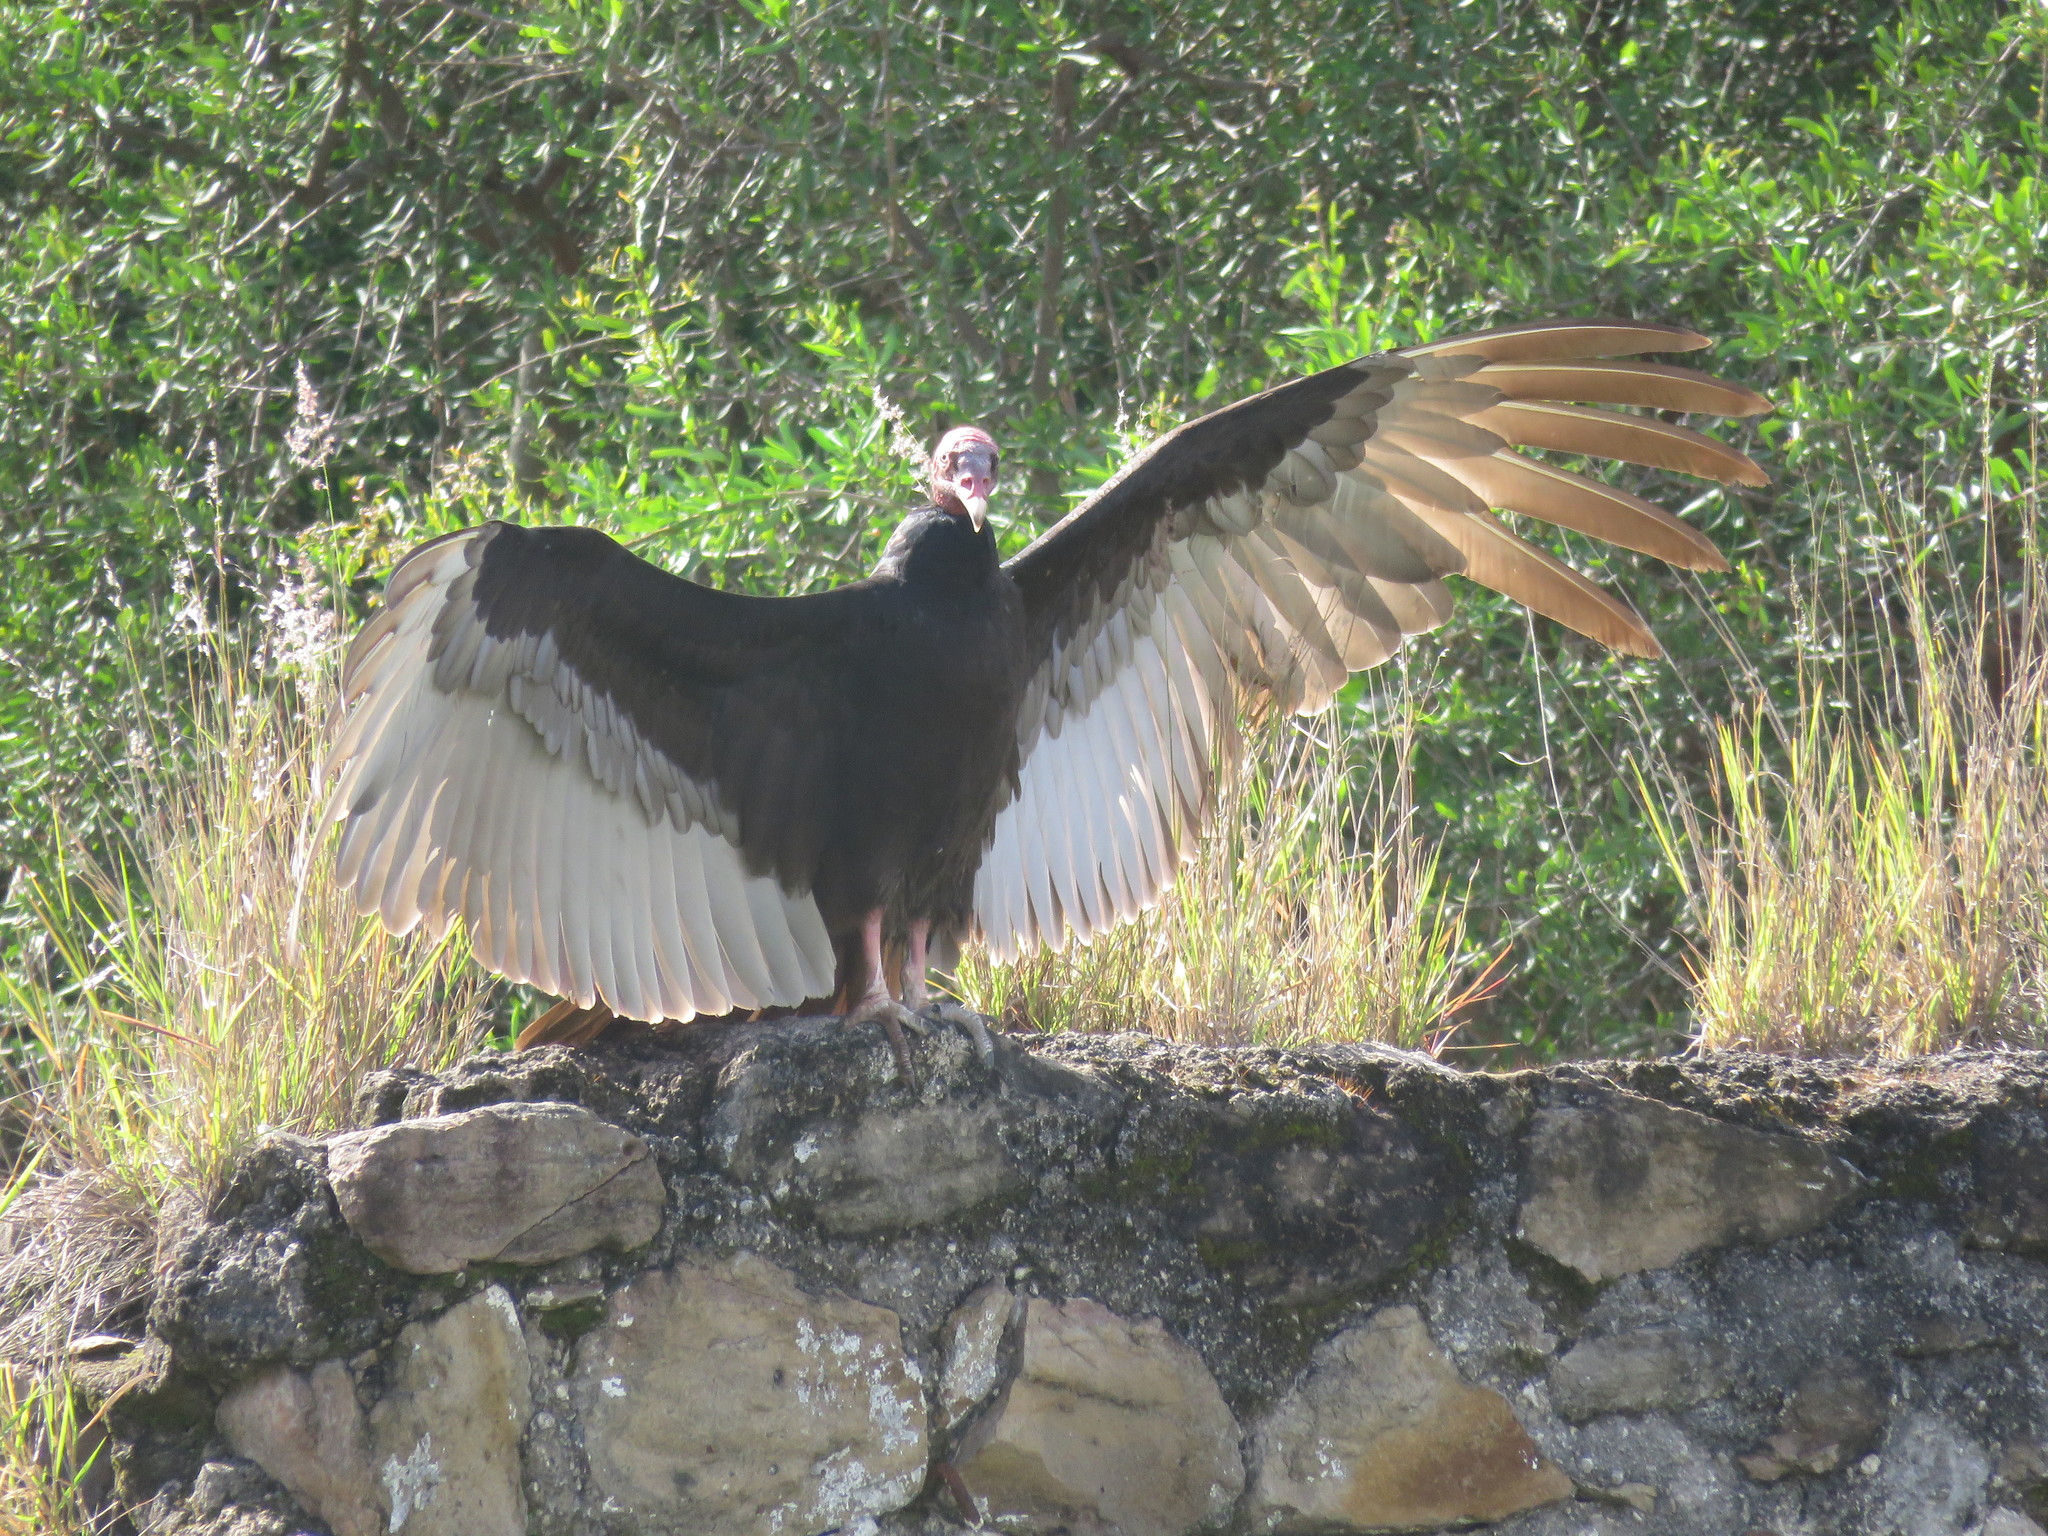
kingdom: Animalia
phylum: Chordata
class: Aves
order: Accipitriformes
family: Cathartidae
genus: Cathartes
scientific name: Cathartes aura
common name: Turkey vulture
